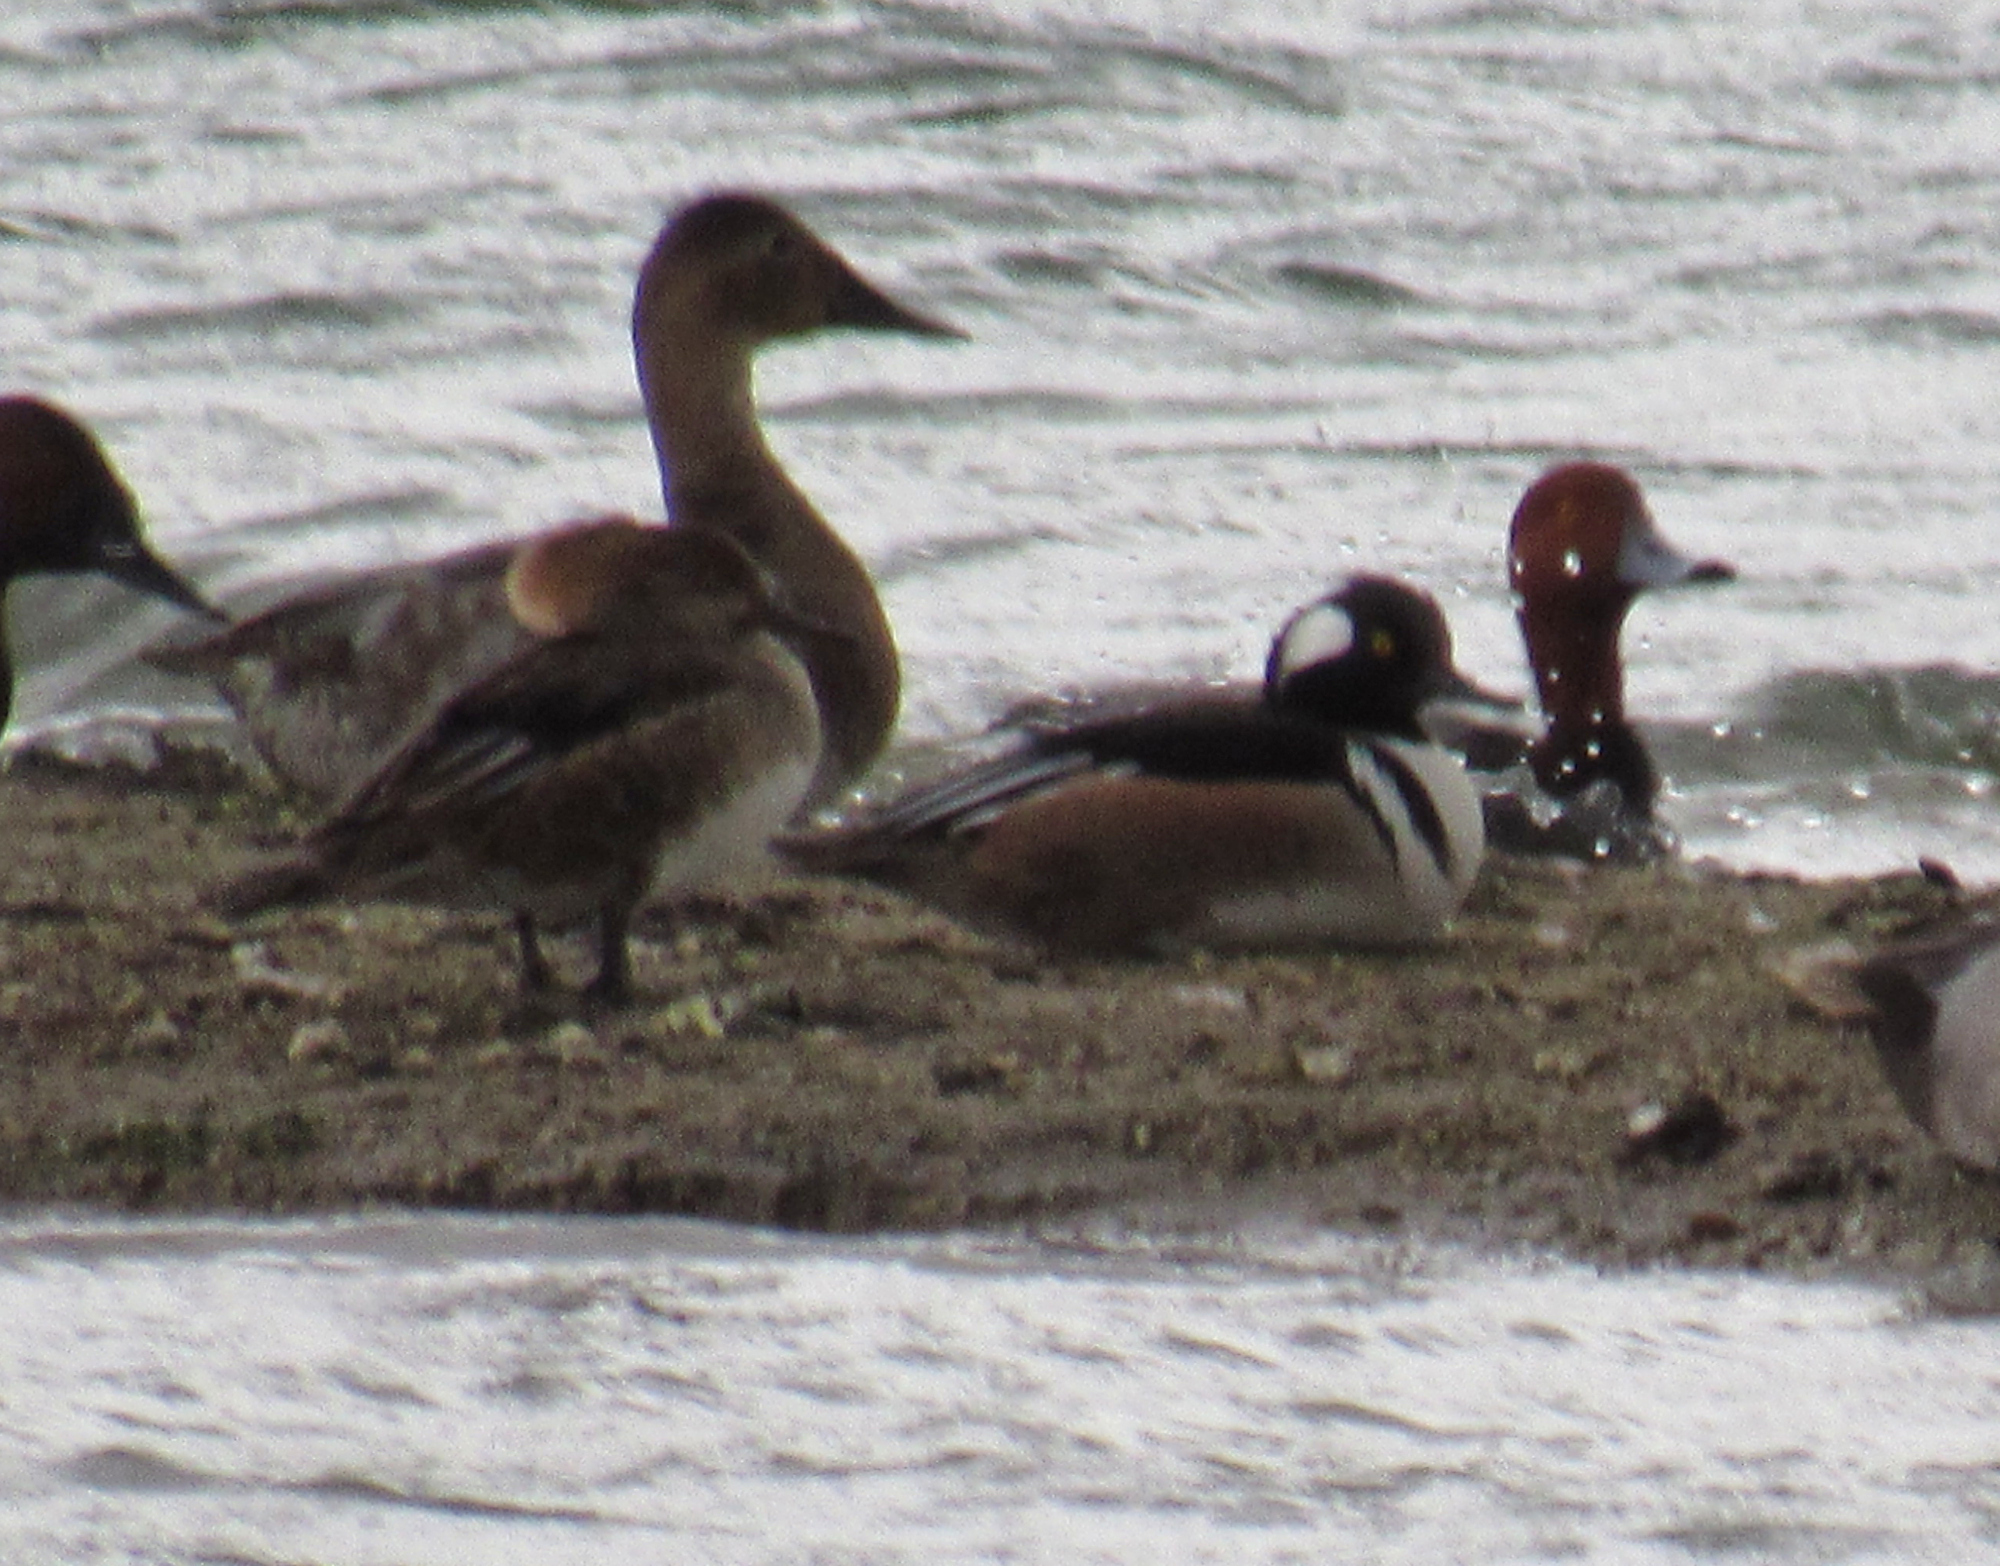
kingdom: Animalia
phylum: Chordata
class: Aves
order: Anseriformes
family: Anatidae
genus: Lophodytes
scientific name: Lophodytes cucullatus
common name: Hooded merganser
